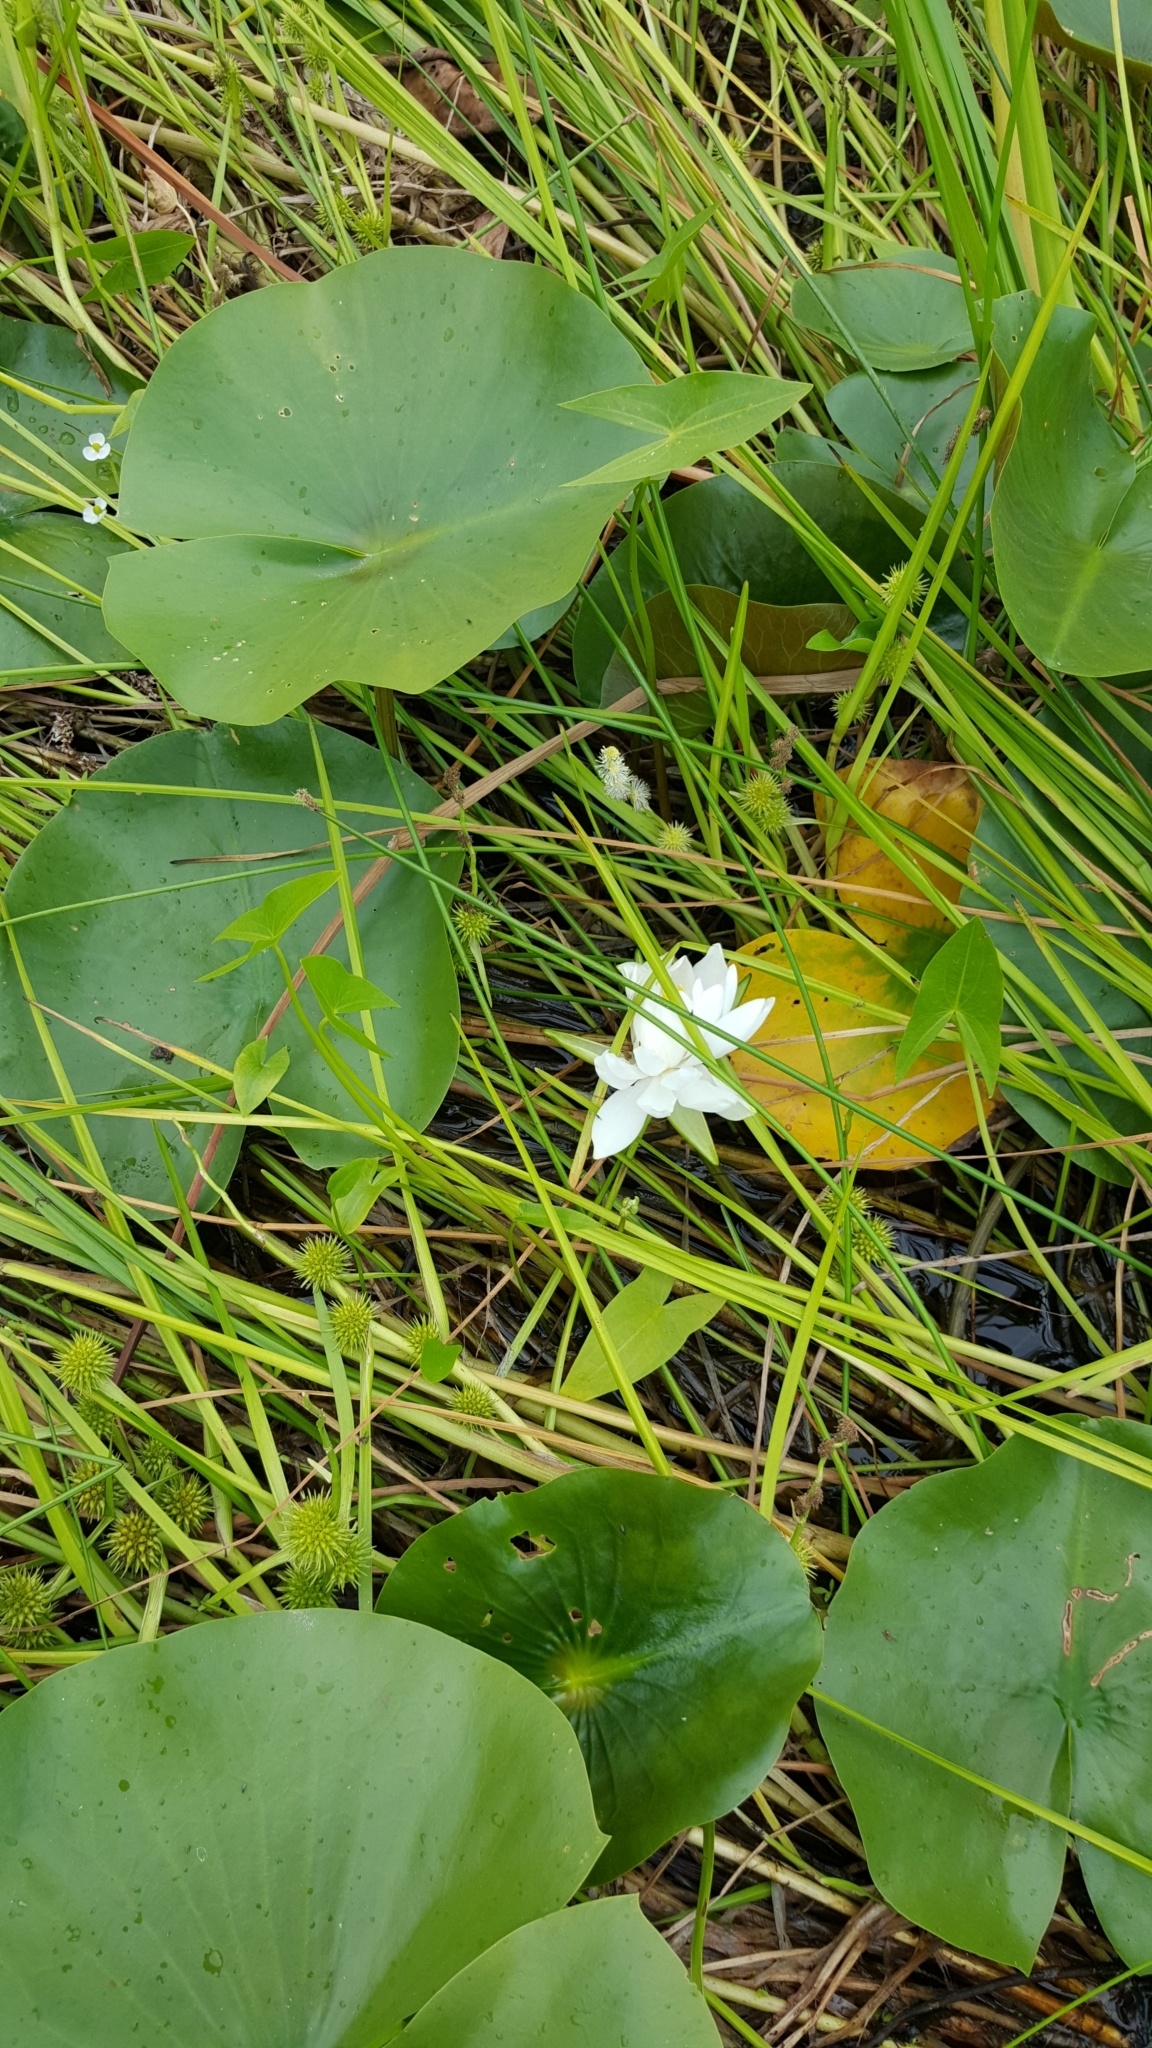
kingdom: Plantae
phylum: Tracheophyta
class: Magnoliopsida
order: Nymphaeales
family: Nymphaeaceae
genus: Nymphaea
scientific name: Nymphaea odorata
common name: Fragrant water-lily
